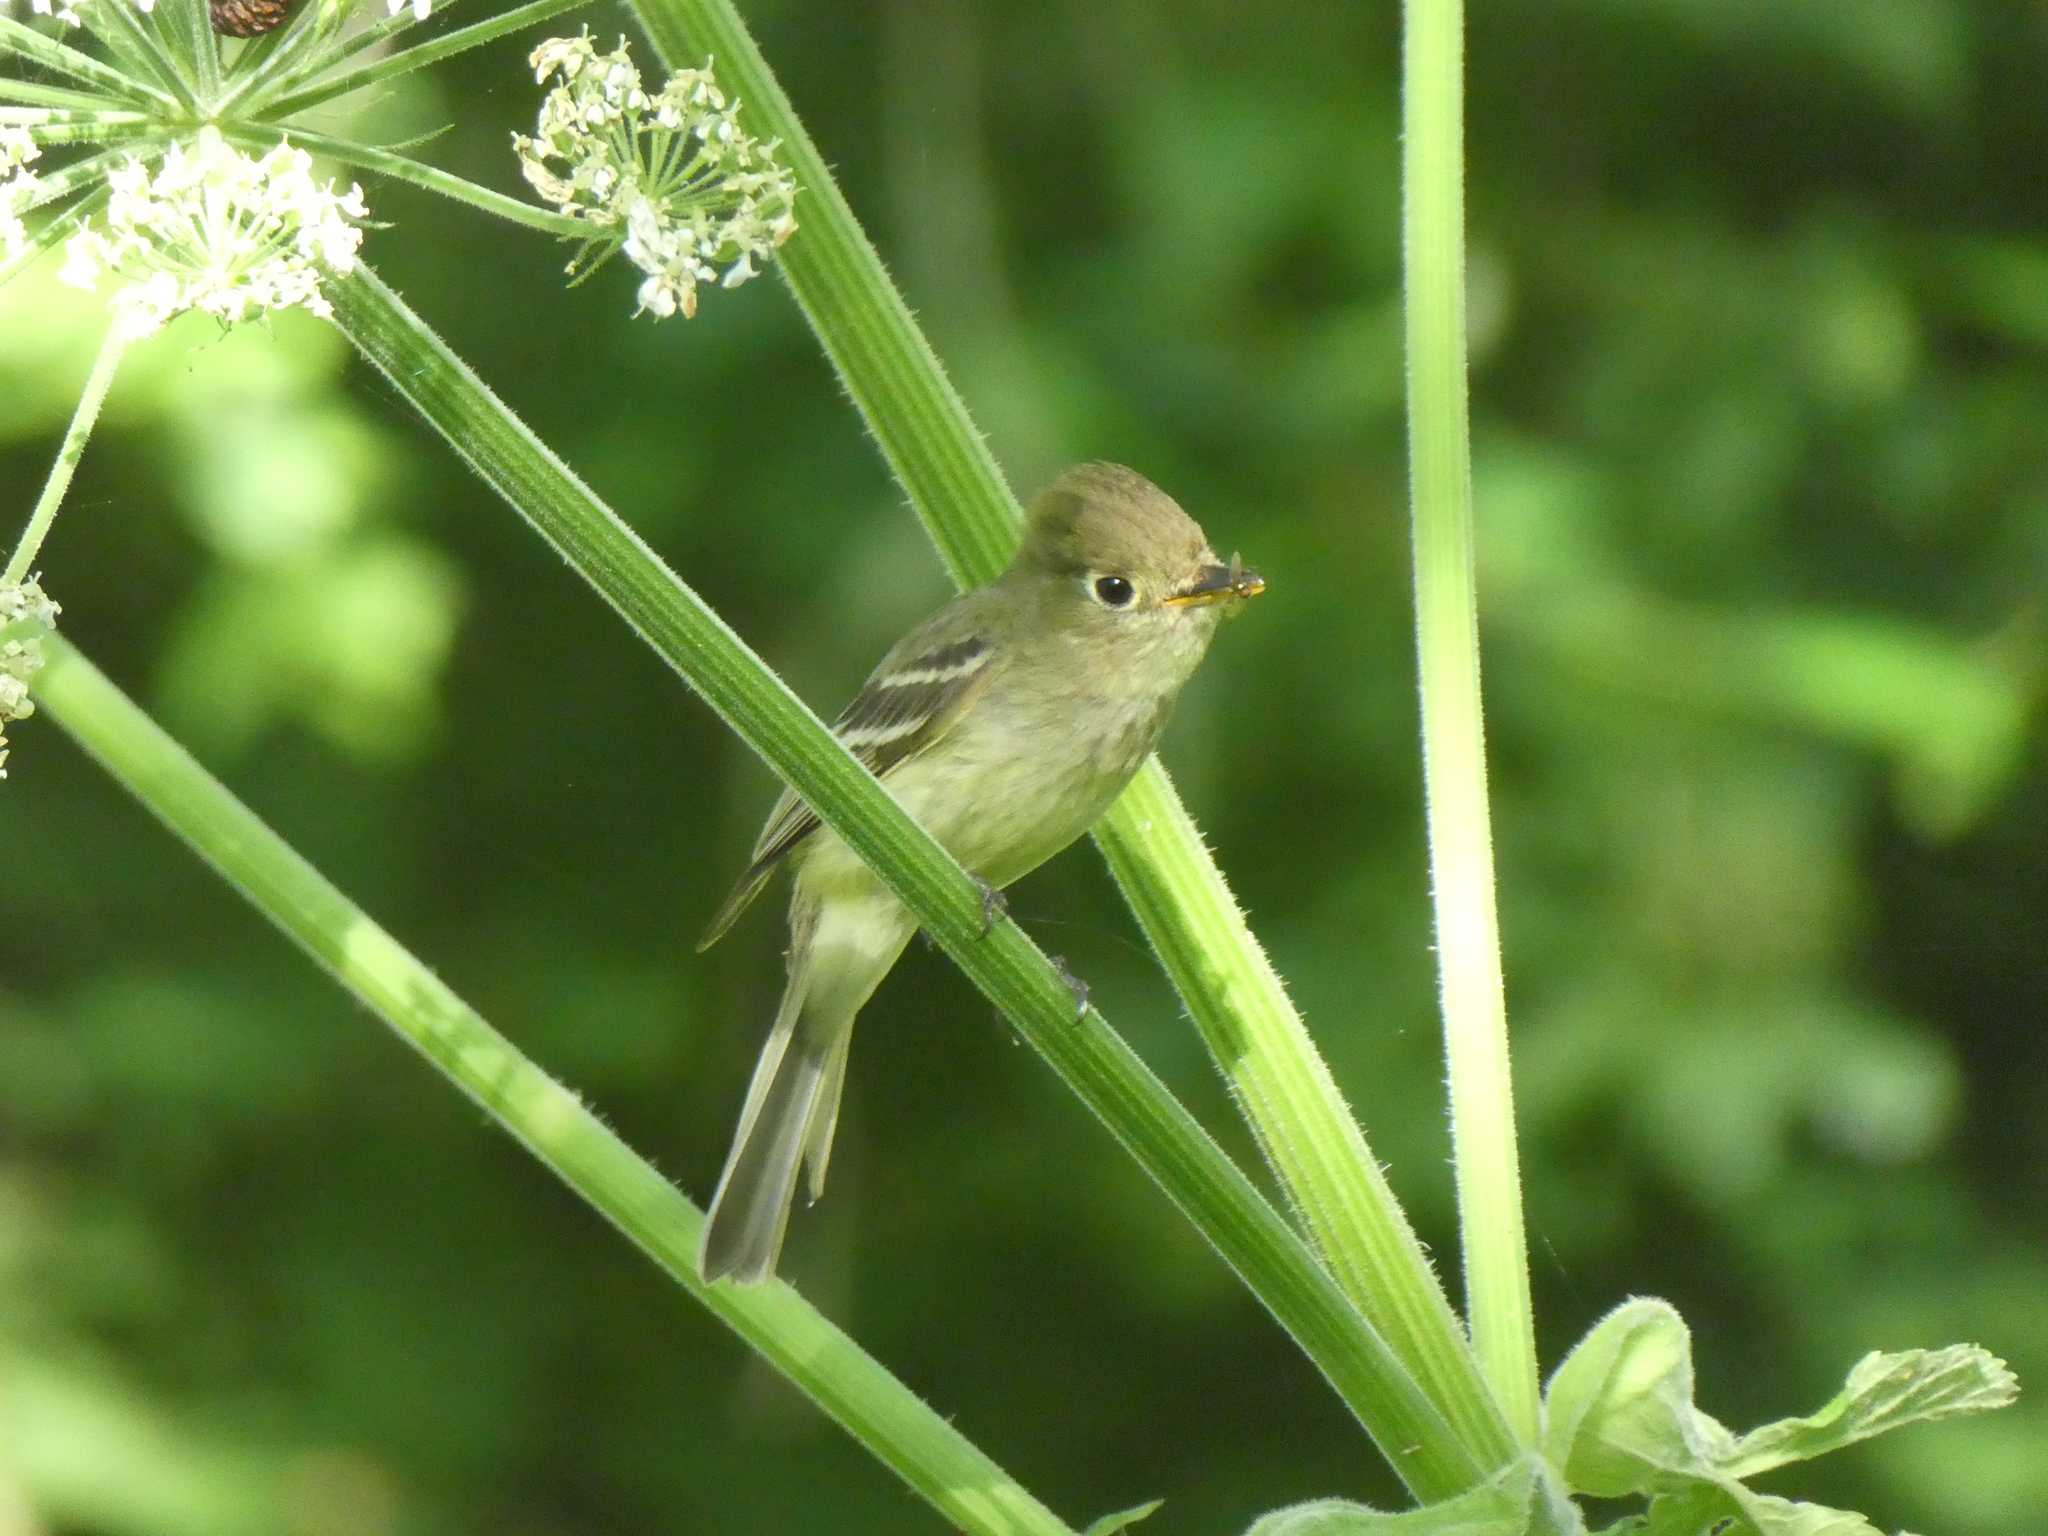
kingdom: Animalia
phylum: Chordata
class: Aves
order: Passeriformes
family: Tyrannidae
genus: Empidonax
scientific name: Empidonax difficilis
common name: Pacific-slope flycatcher
